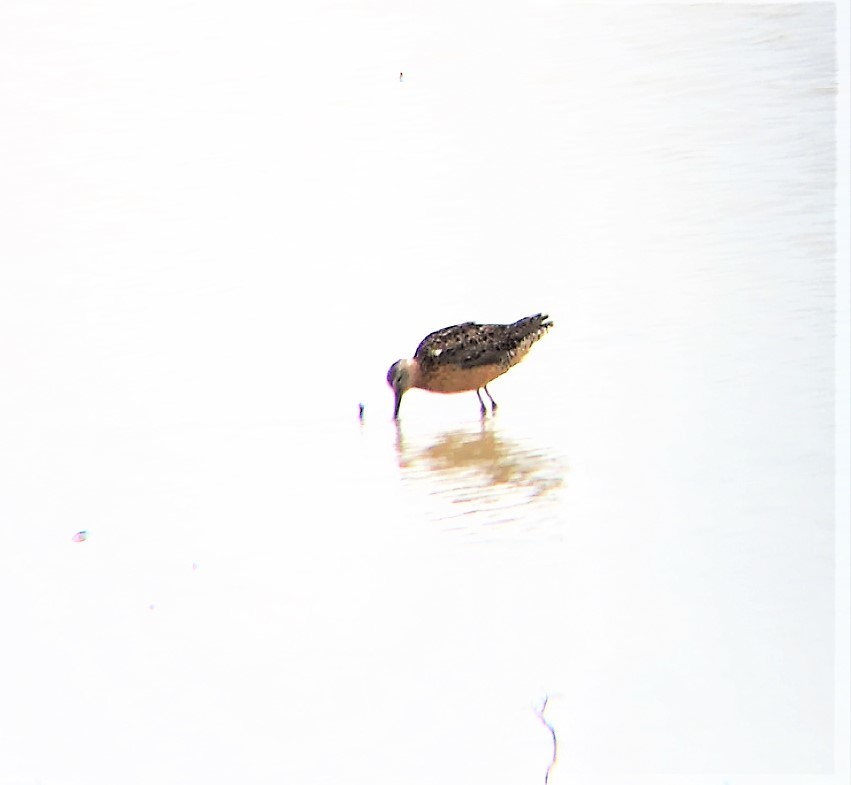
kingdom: Animalia
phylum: Chordata
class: Aves
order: Charadriiformes
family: Scolopacidae
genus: Limnodromus
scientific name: Limnodromus
